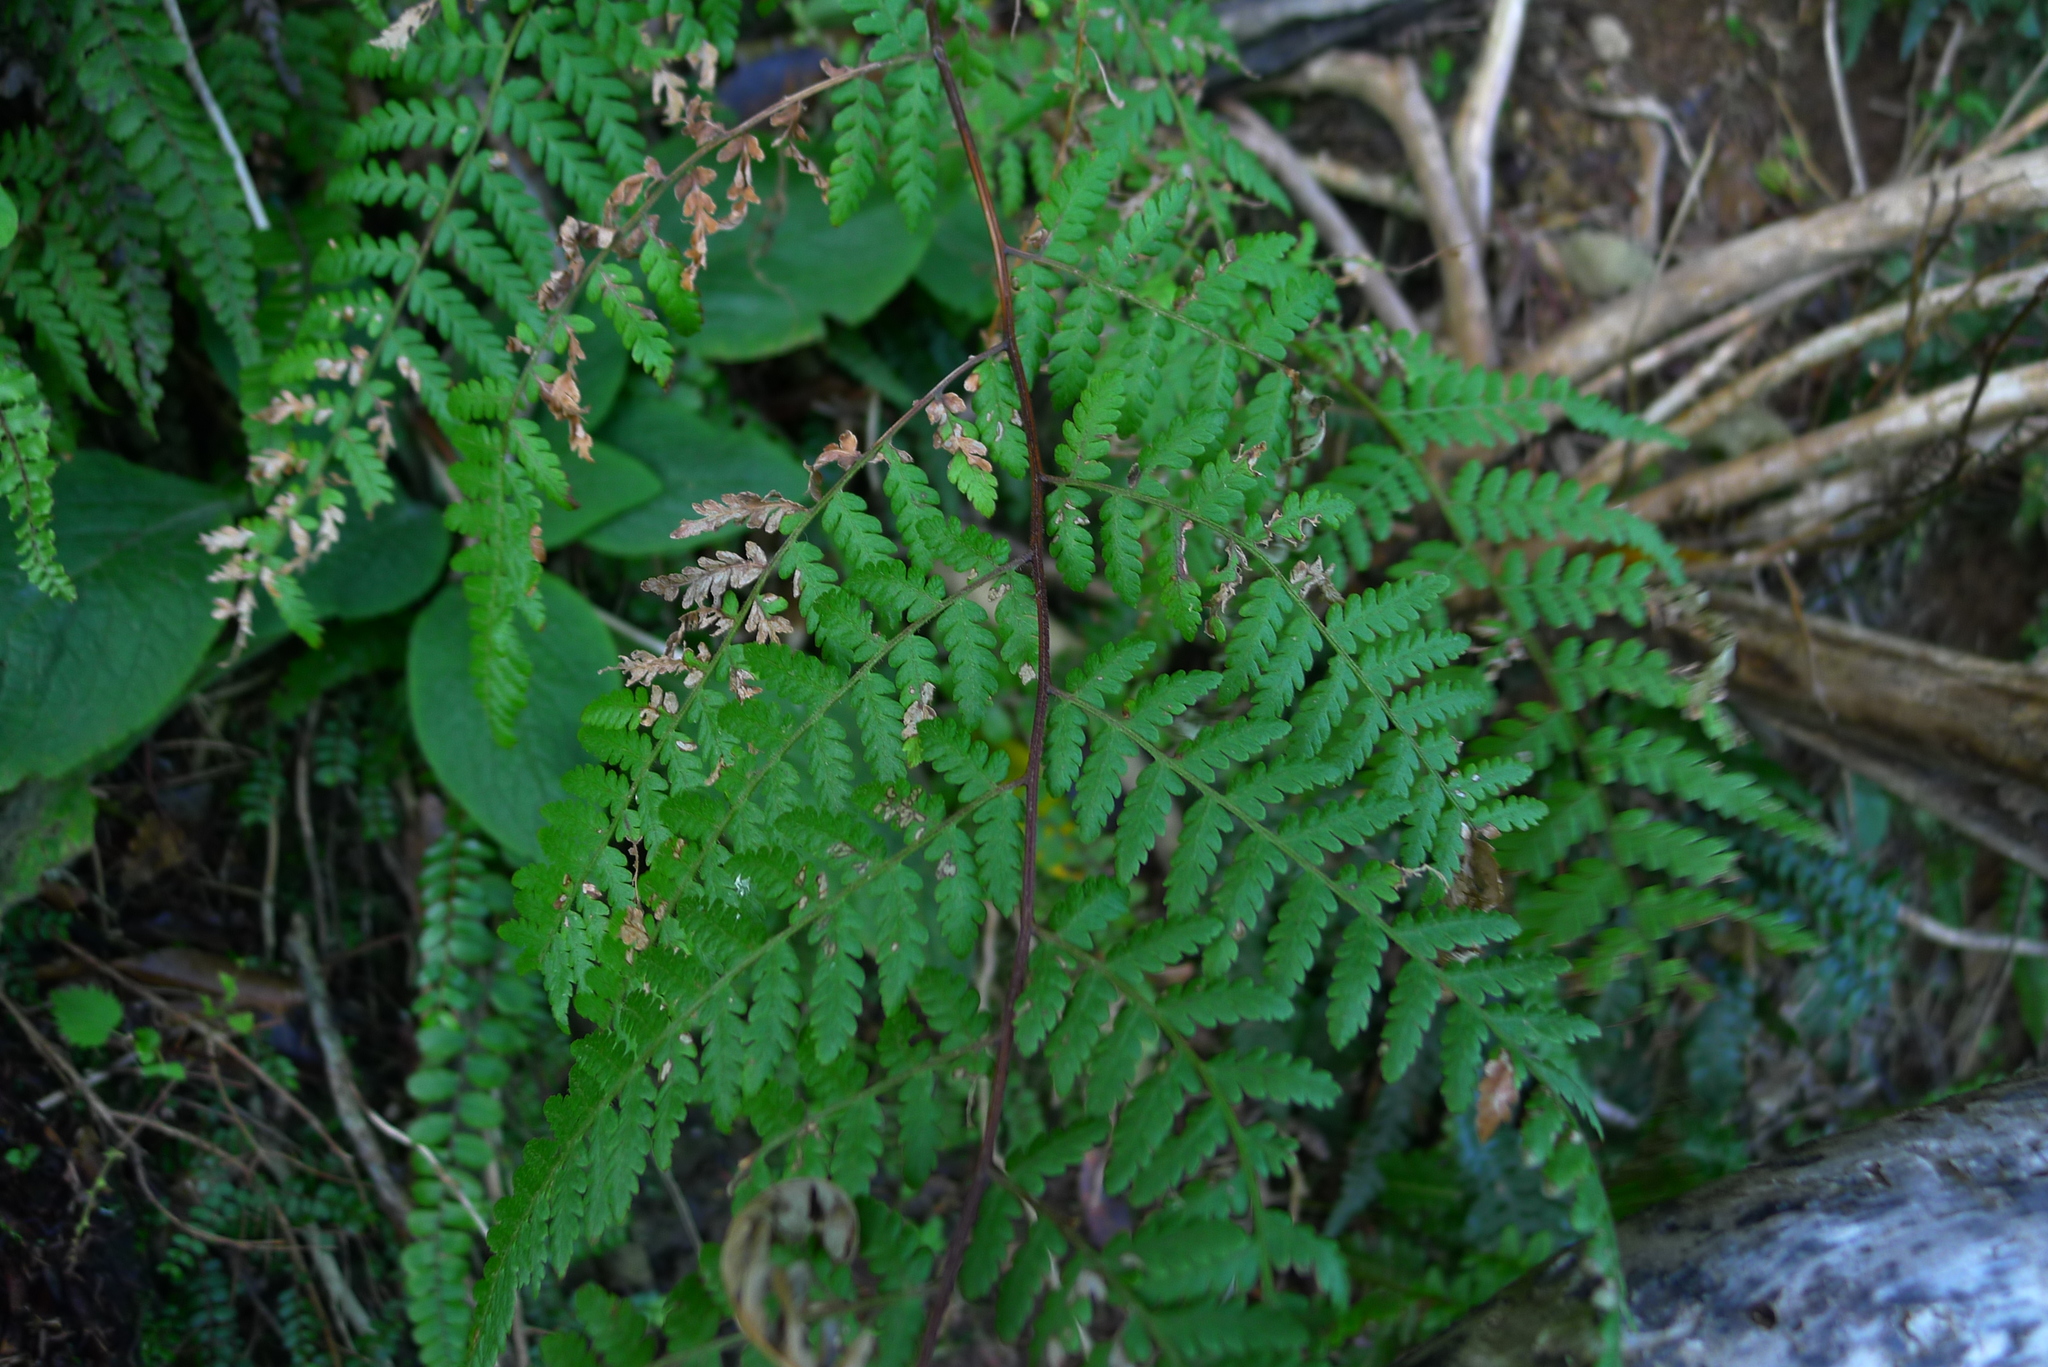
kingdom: Plantae
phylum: Tracheophyta
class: Polypodiopsida
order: Polypodiales
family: Dennstaedtiaceae
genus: Hypolepis
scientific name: Hypolepis ambigua
